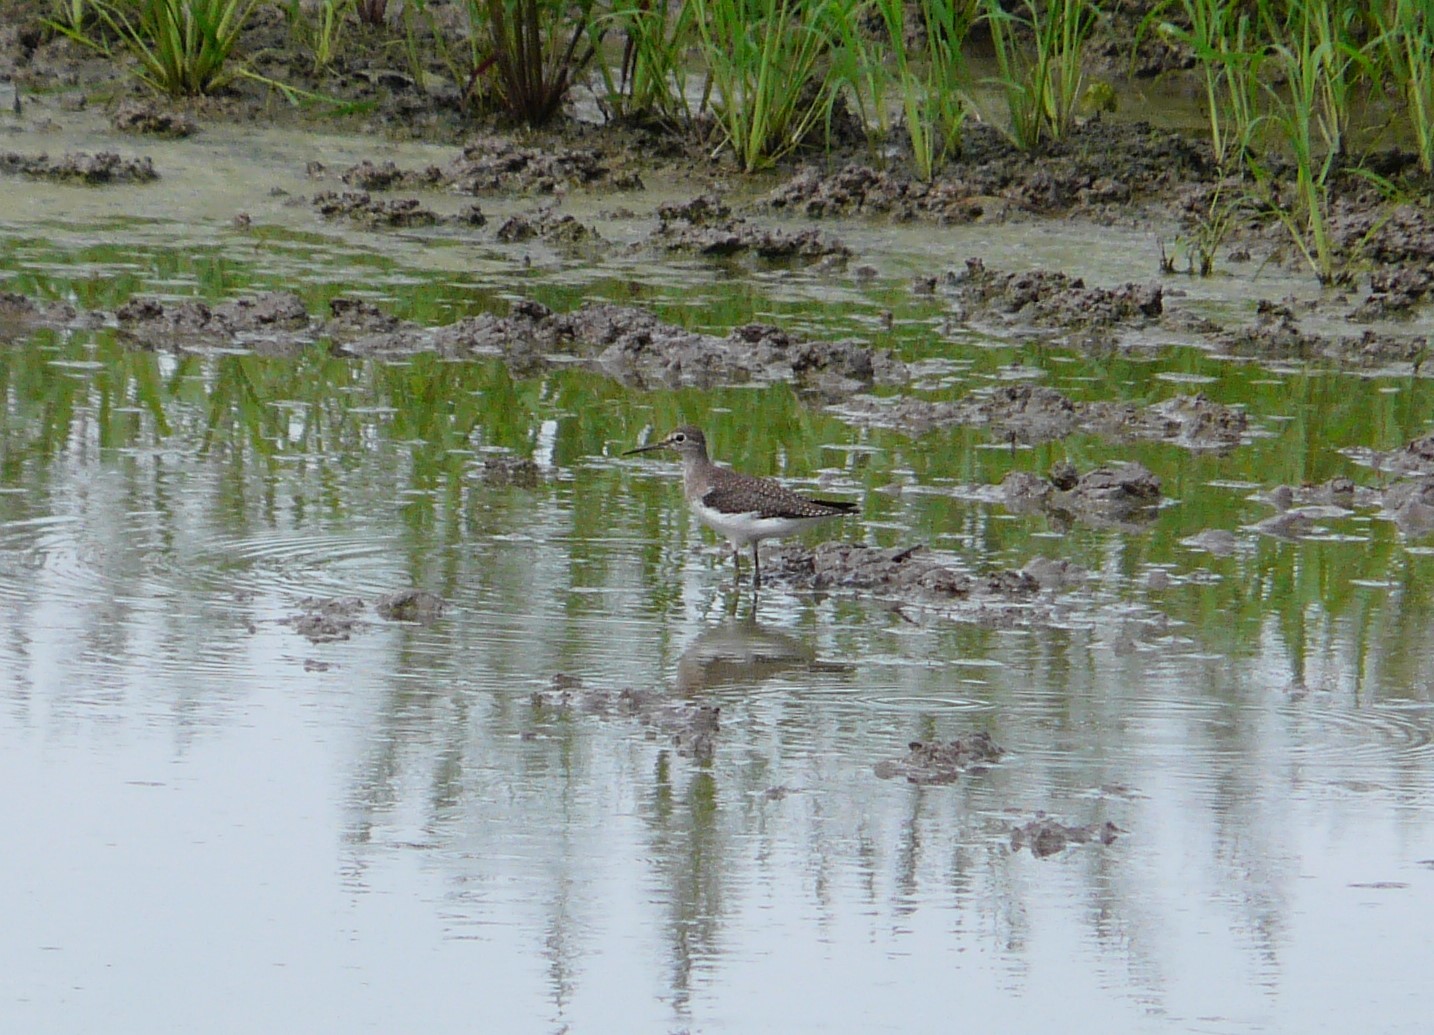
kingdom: Animalia
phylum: Chordata
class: Aves
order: Charadriiformes
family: Scolopacidae
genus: Tringa
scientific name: Tringa solitaria
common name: Solitary sandpiper
